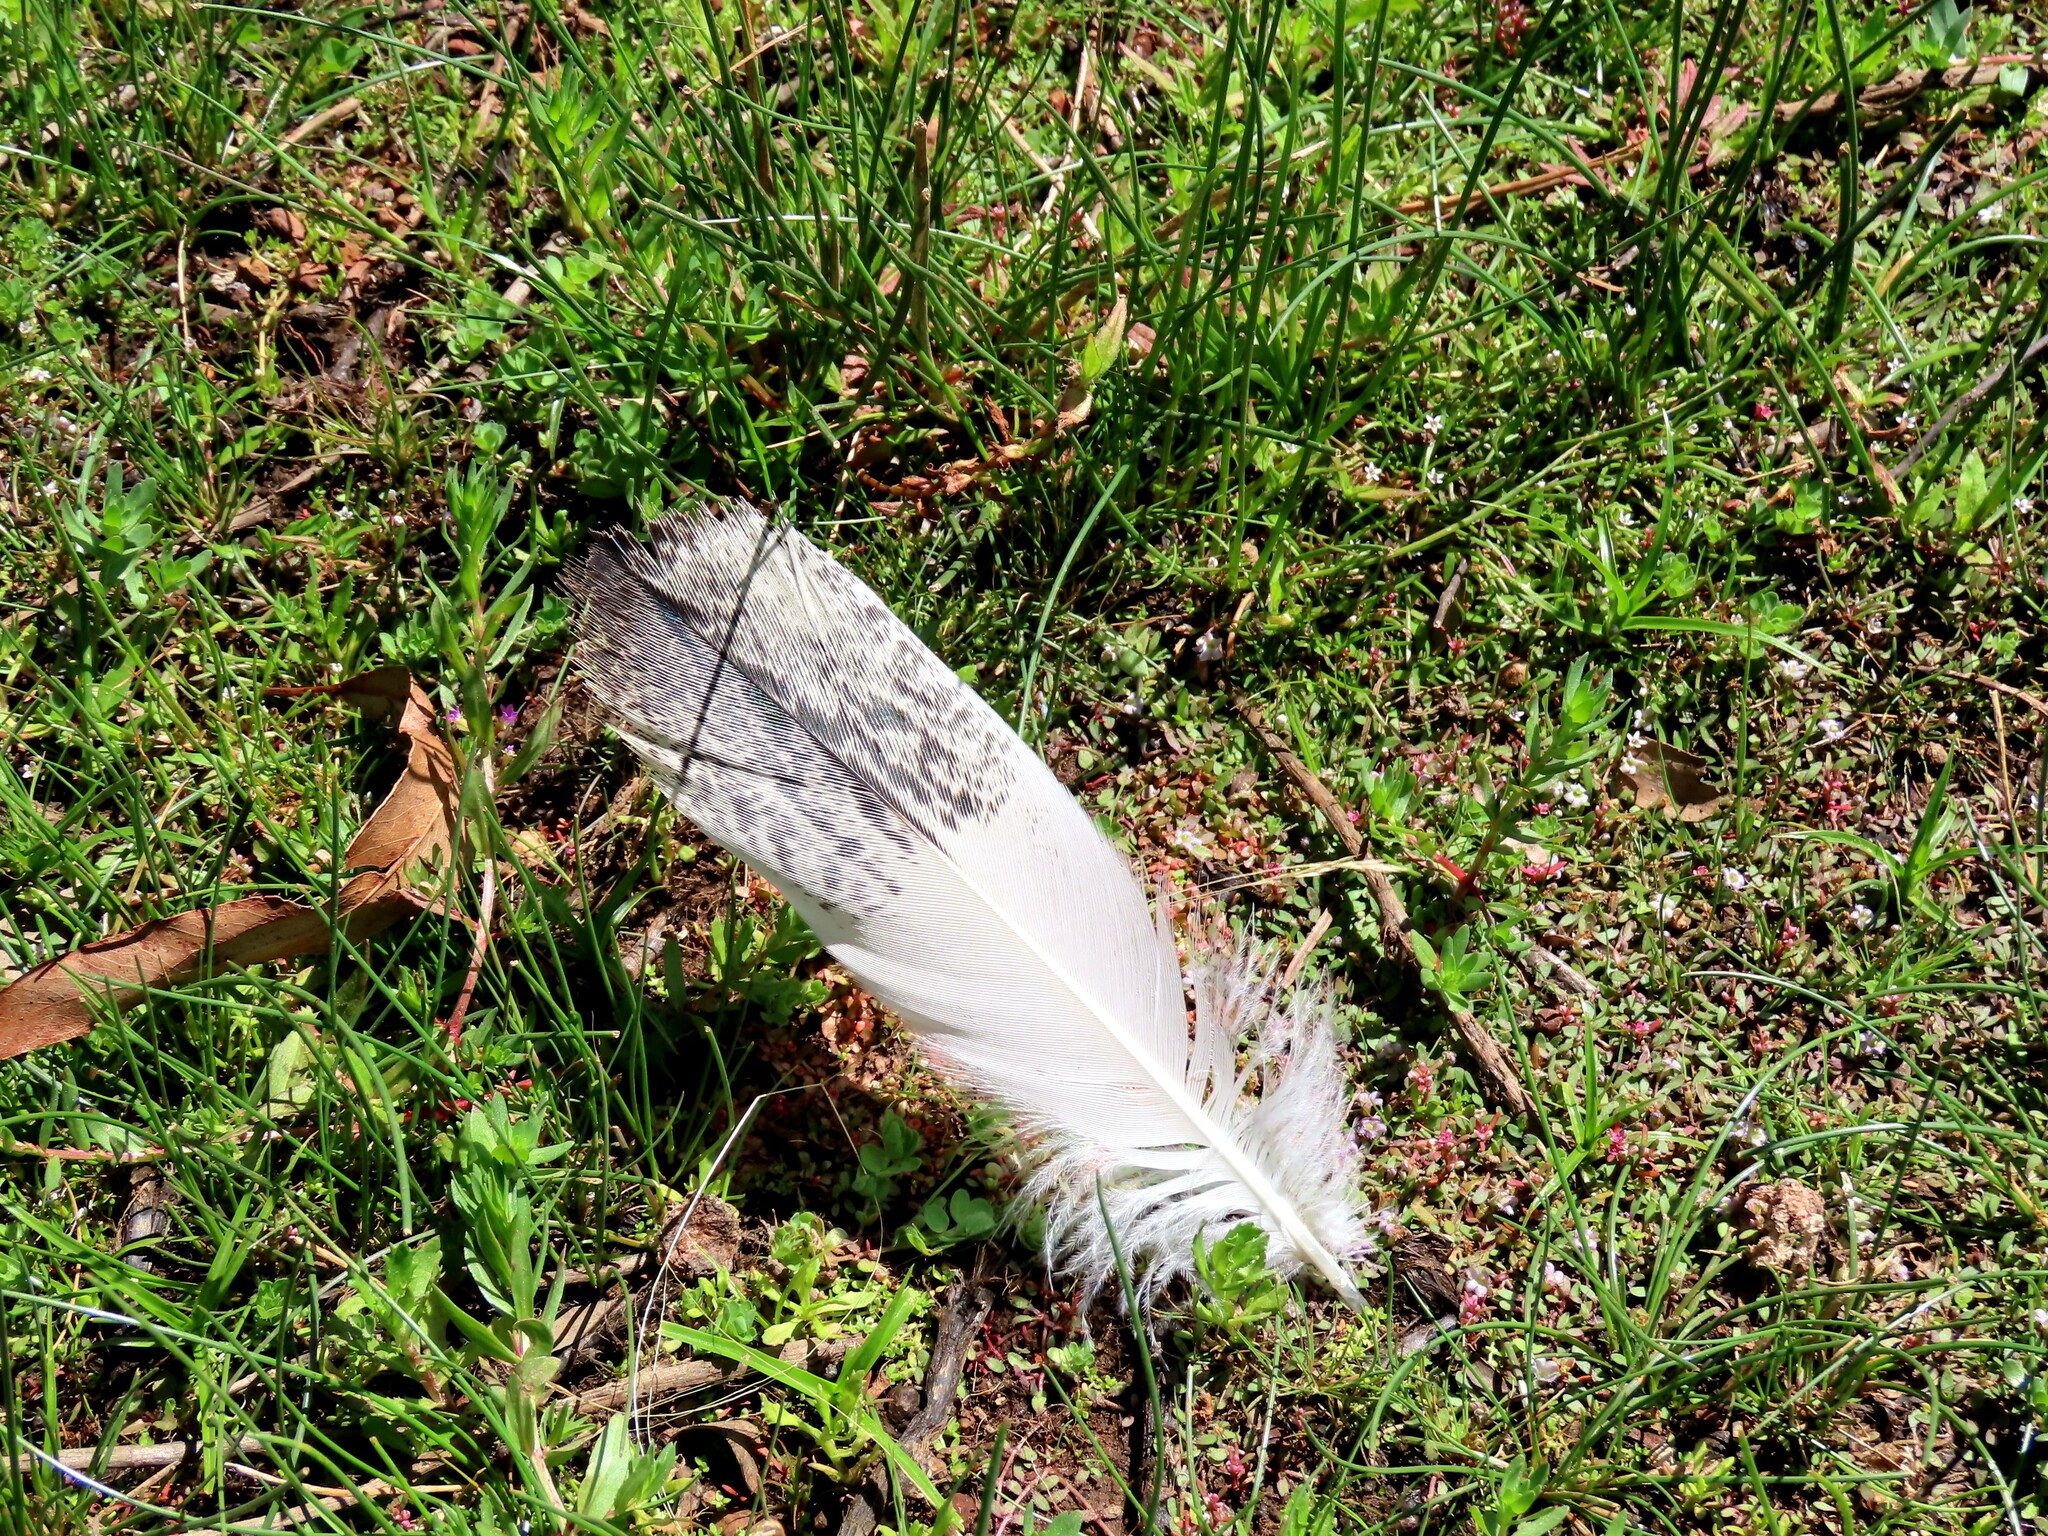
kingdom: Animalia
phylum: Chordata
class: Aves
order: Pelecaniformes
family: Threskiornithidae
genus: Threskiornis
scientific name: Threskiornis molucca
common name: Australian white ibis
